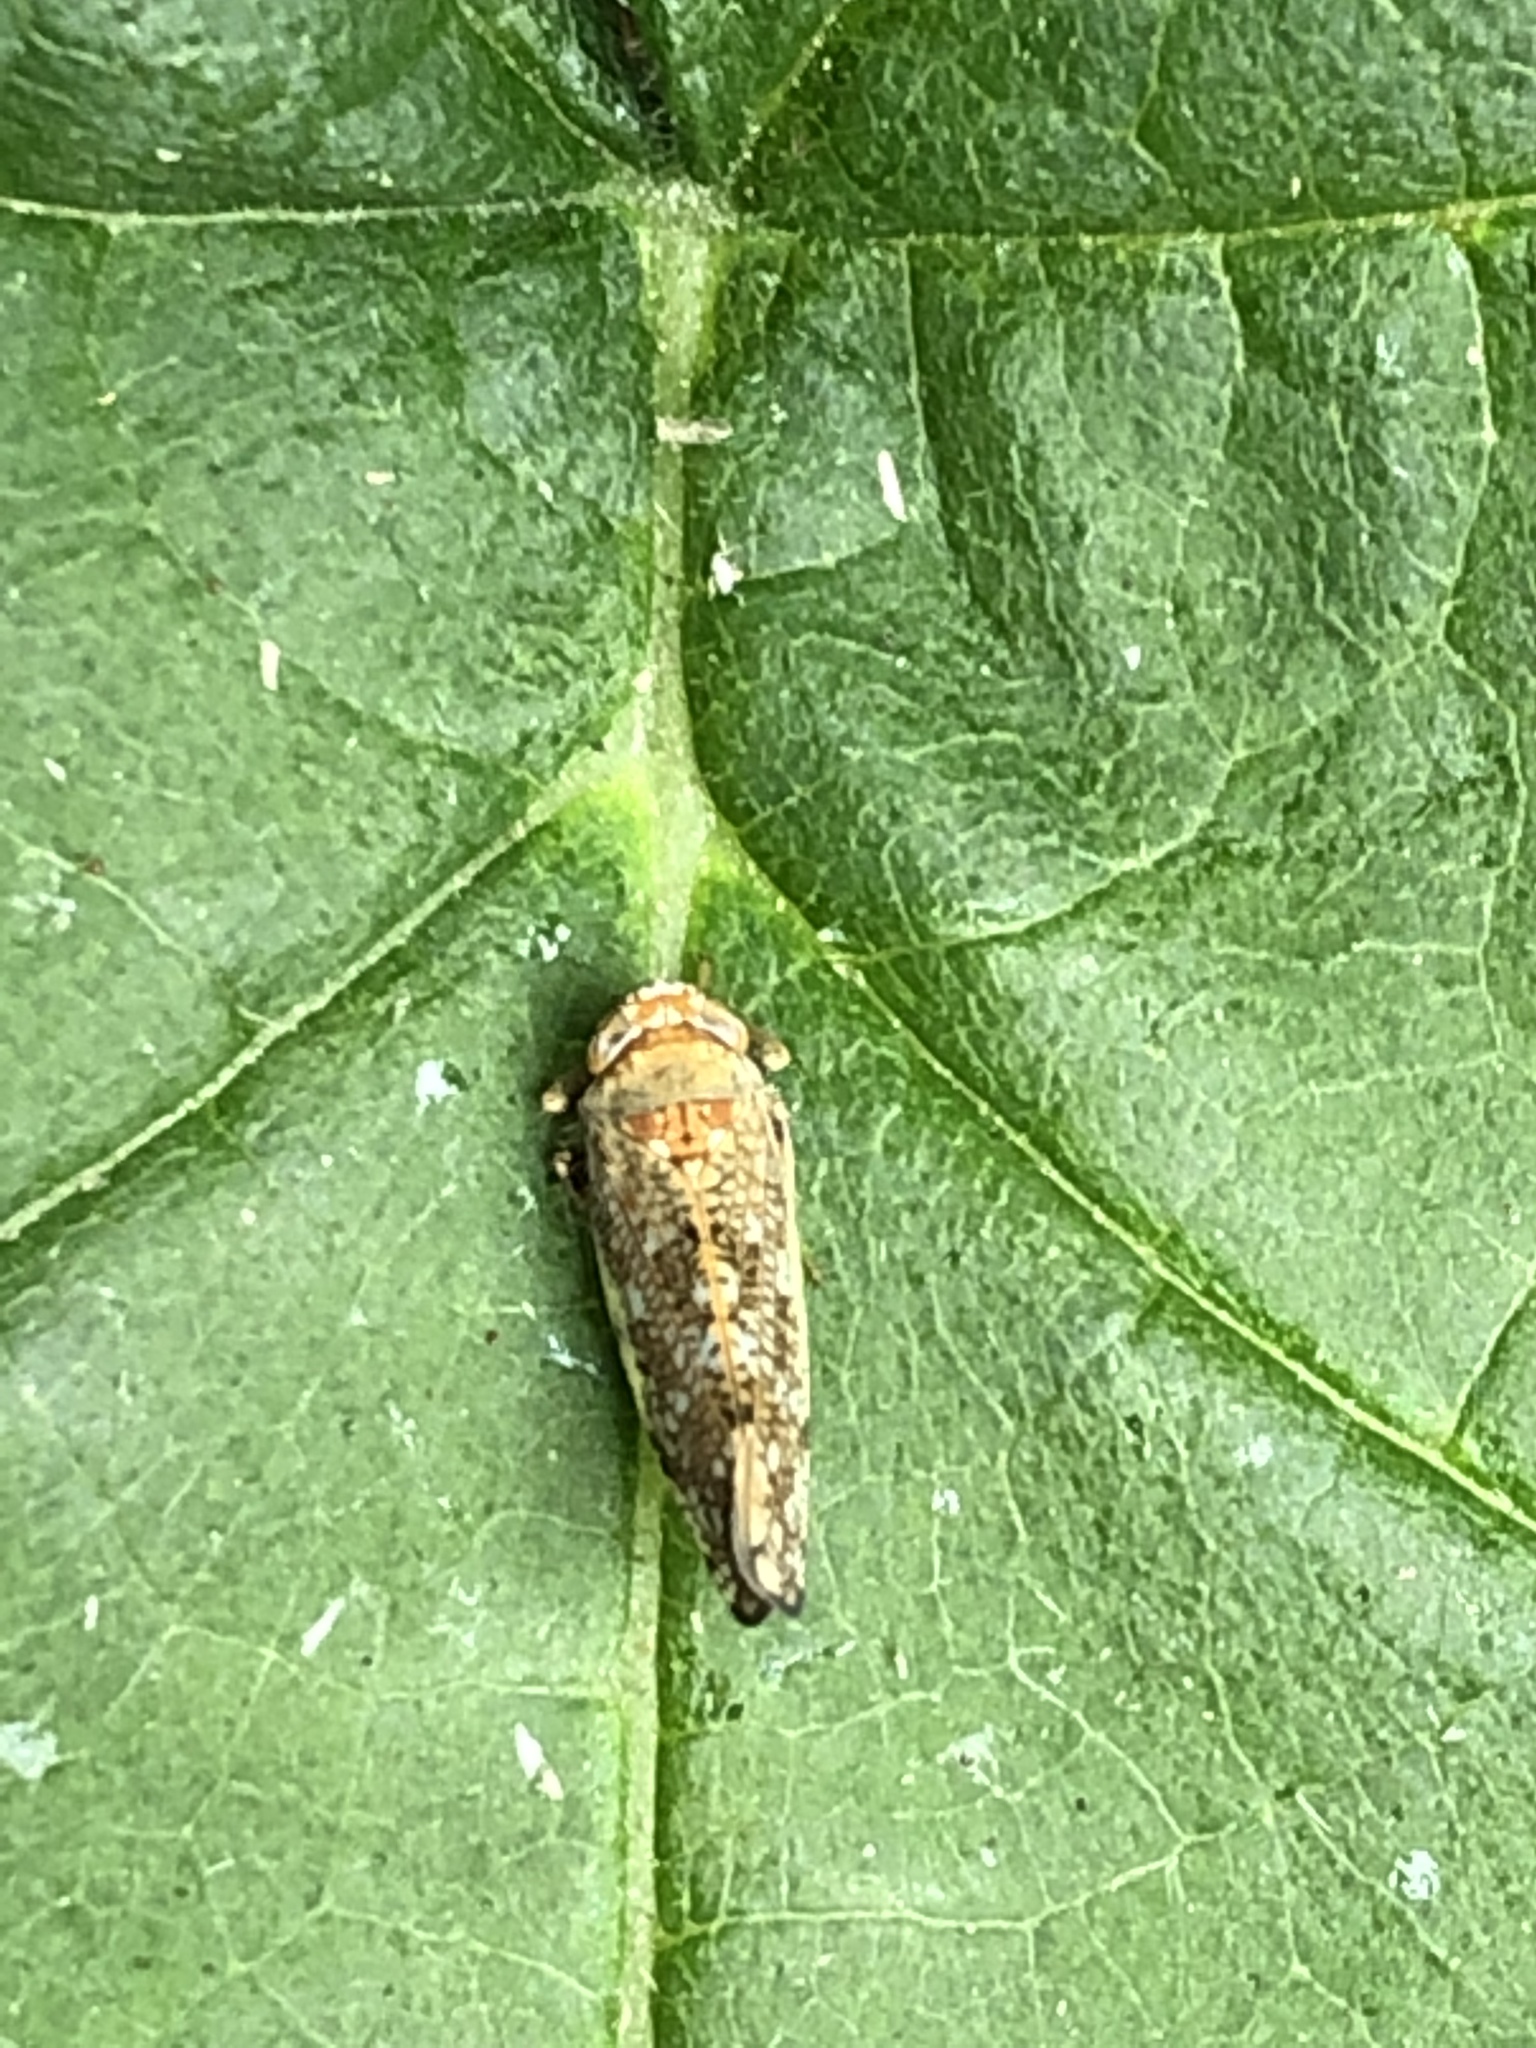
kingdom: Animalia
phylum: Arthropoda
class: Insecta
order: Hemiptera
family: Cicadellidae
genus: Orientus
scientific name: Orientus ishidae
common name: Japanese leafhopper
